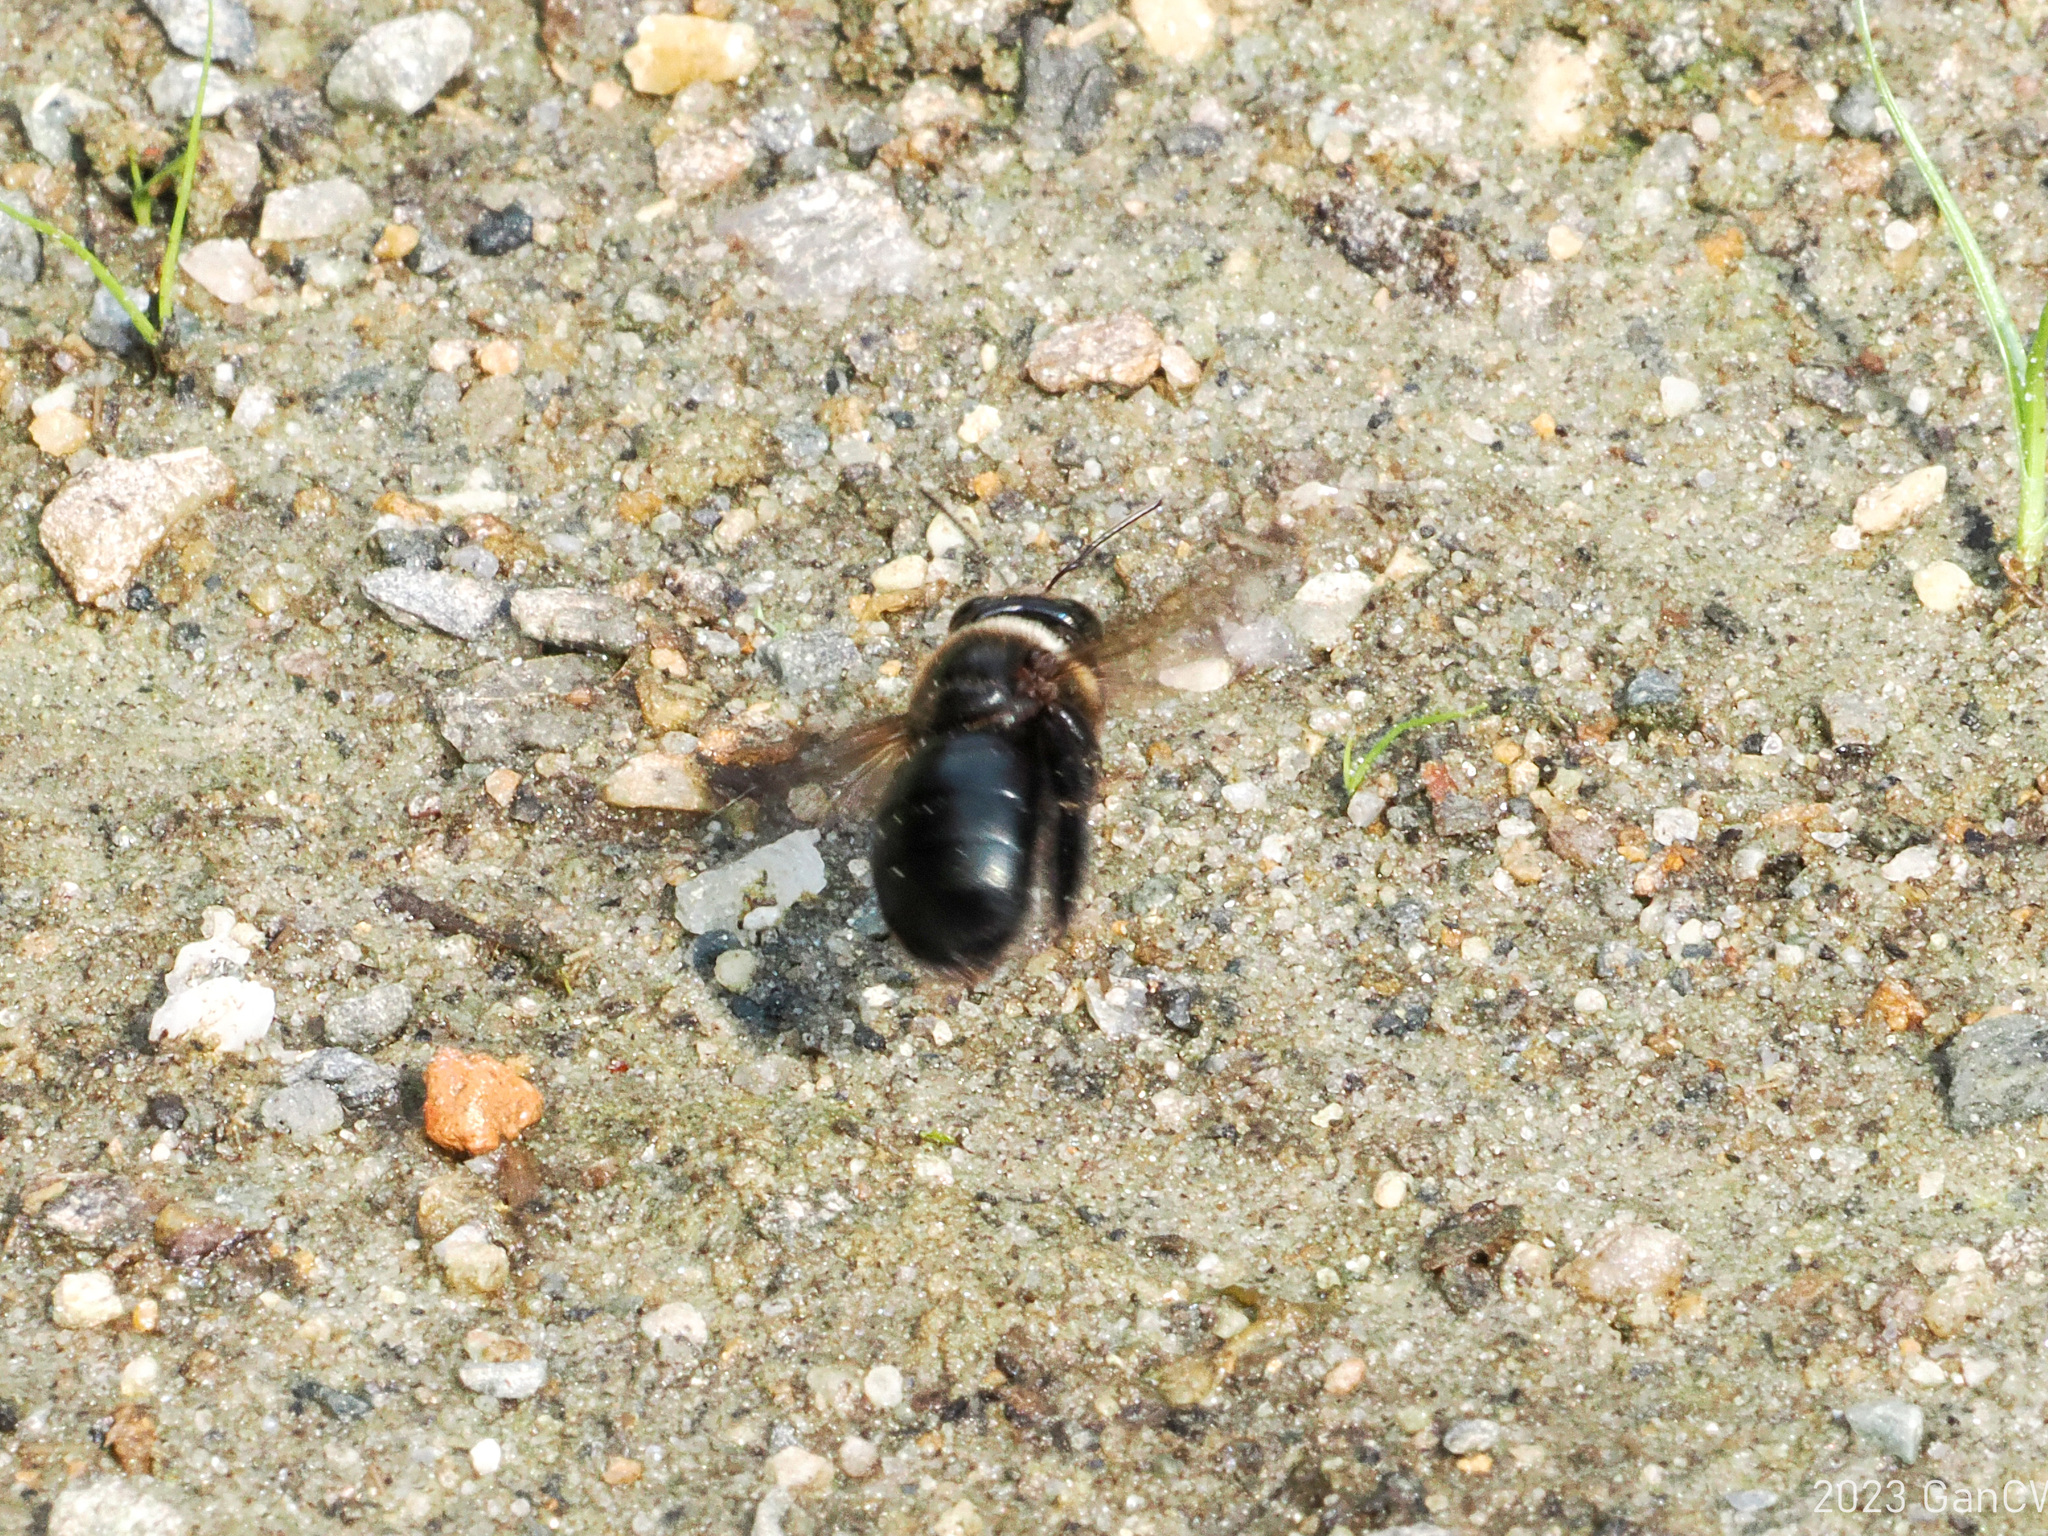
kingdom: Animalia
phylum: Arthropoda
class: Insecta
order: Hymenoptera
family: Apidae
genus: Xylocopa
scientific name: Xylocopa dejeanii
